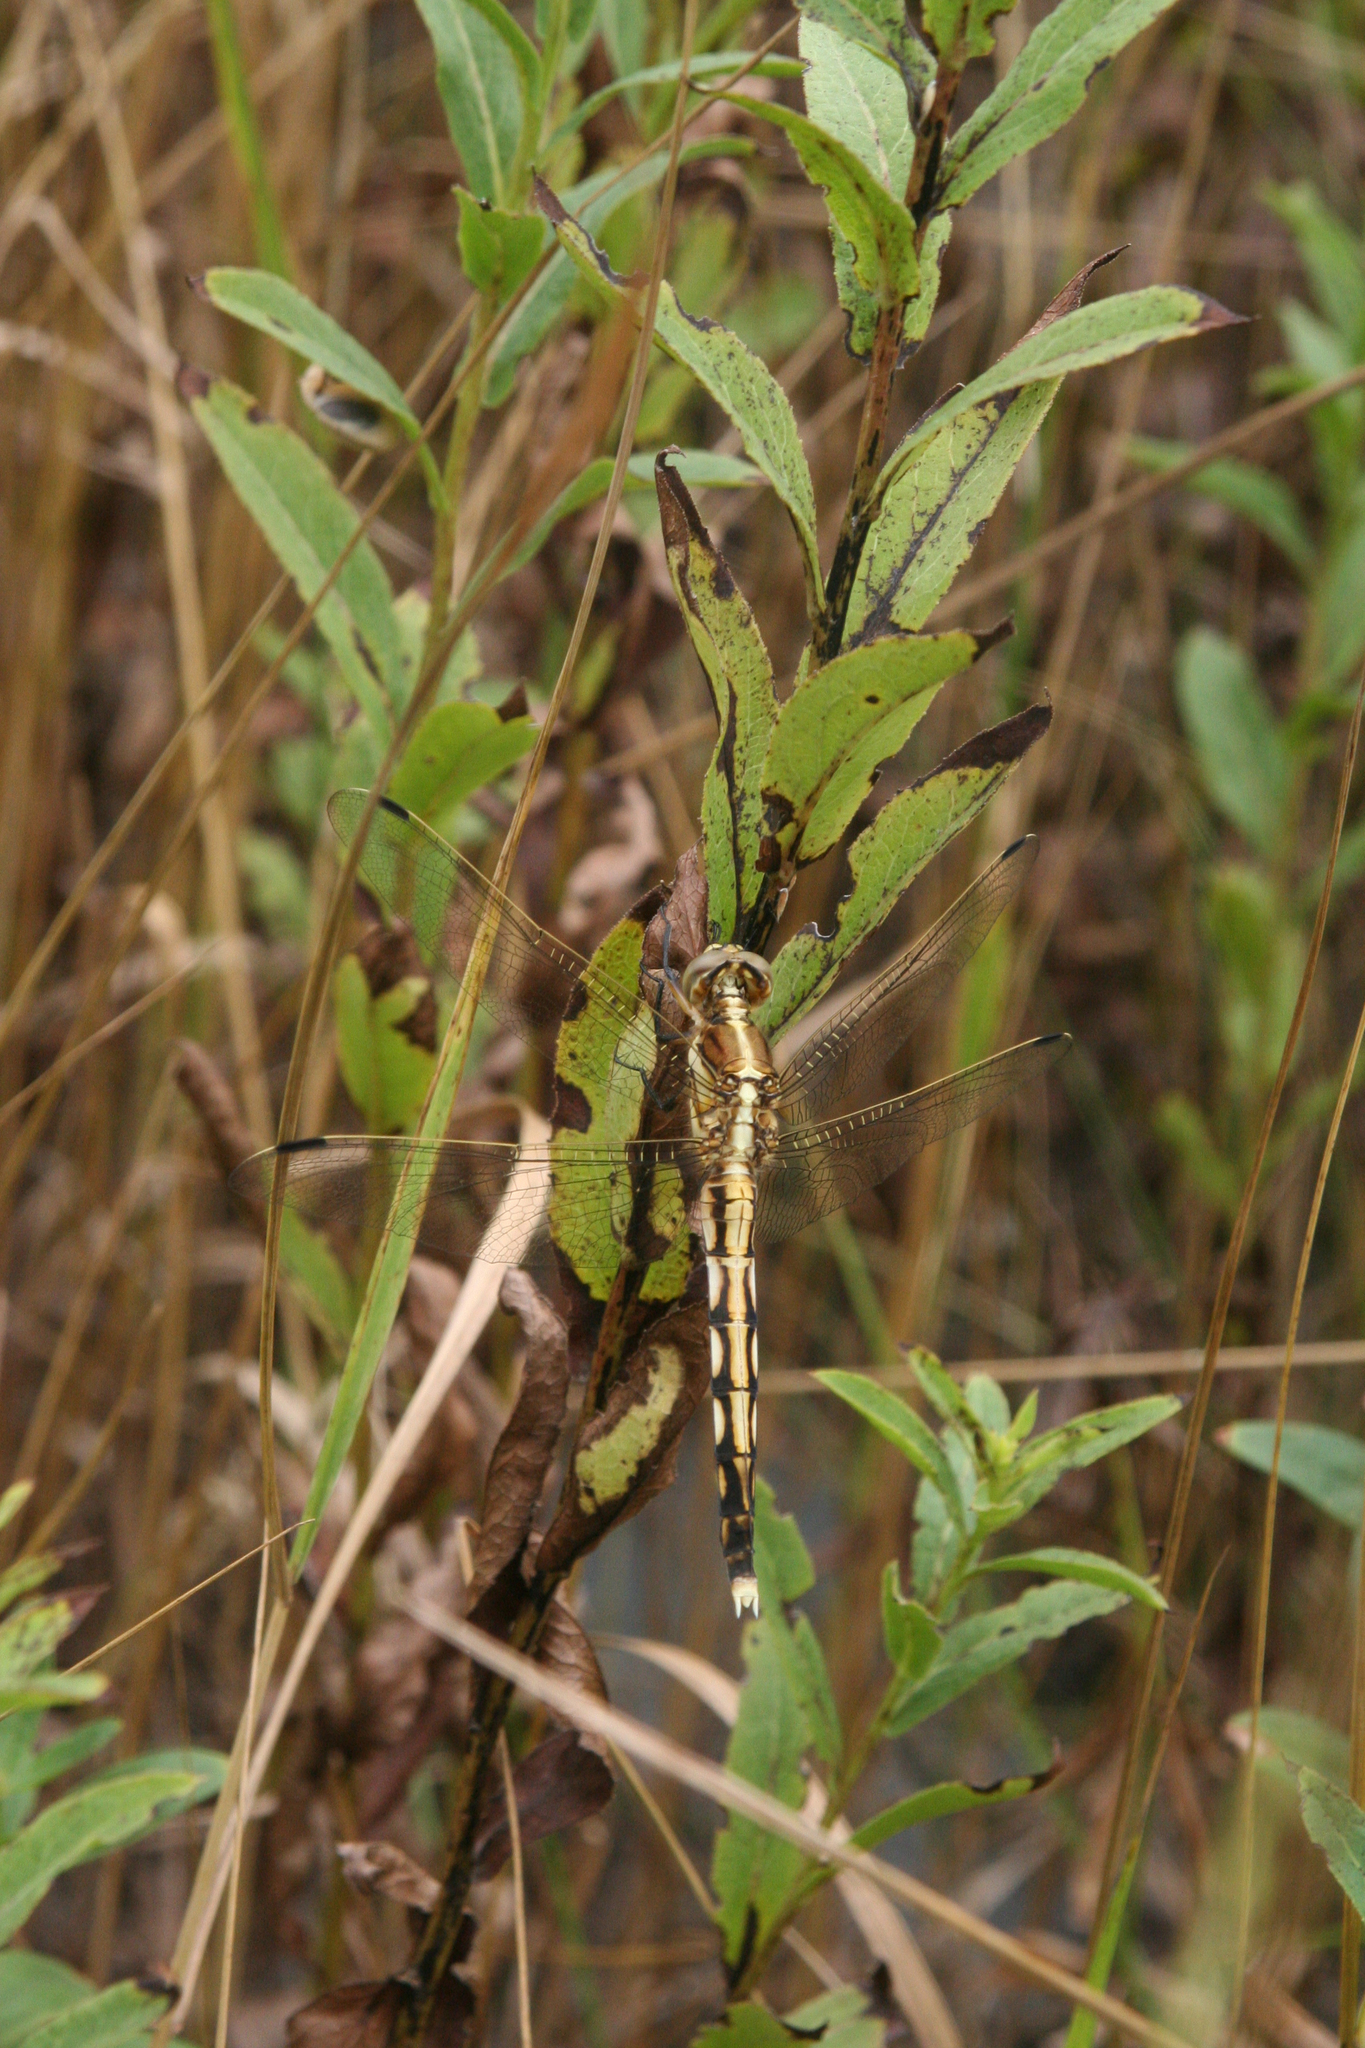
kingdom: Animalia
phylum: Arthropoda
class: Insecta
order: Odonata
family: Libellulidae
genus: Orthetrum
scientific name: Orthetrum albistylum
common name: White-tailed skimmer
